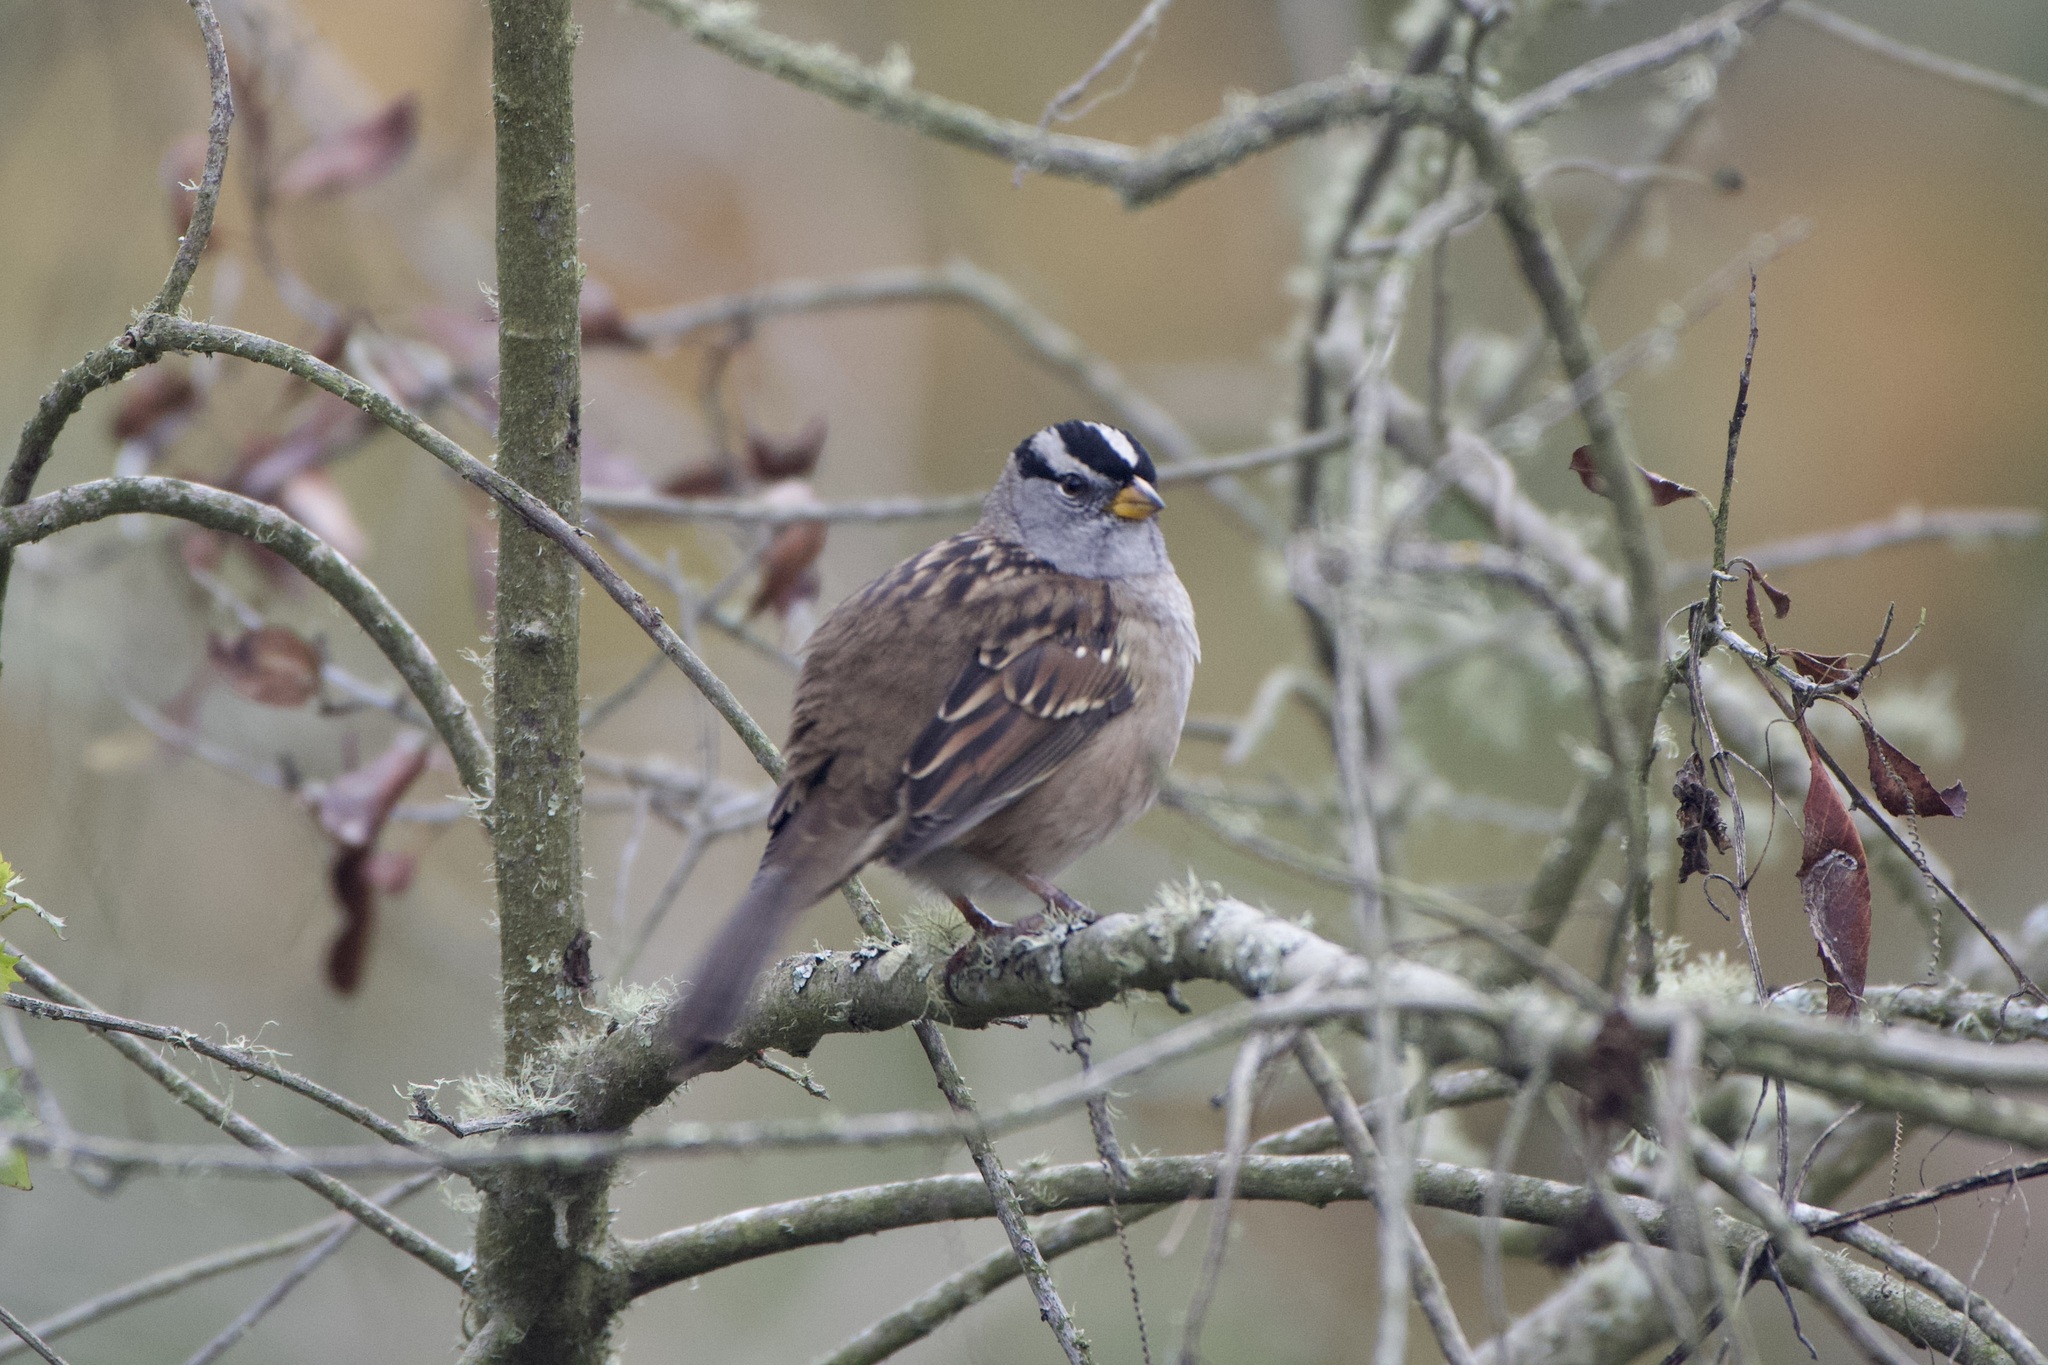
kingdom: Animalia
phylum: Chordata
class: Aves
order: Passeriformes
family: Passerellidae
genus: Zonotrichia
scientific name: Zonotrichia leucophrys
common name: White-crowned sparrow
